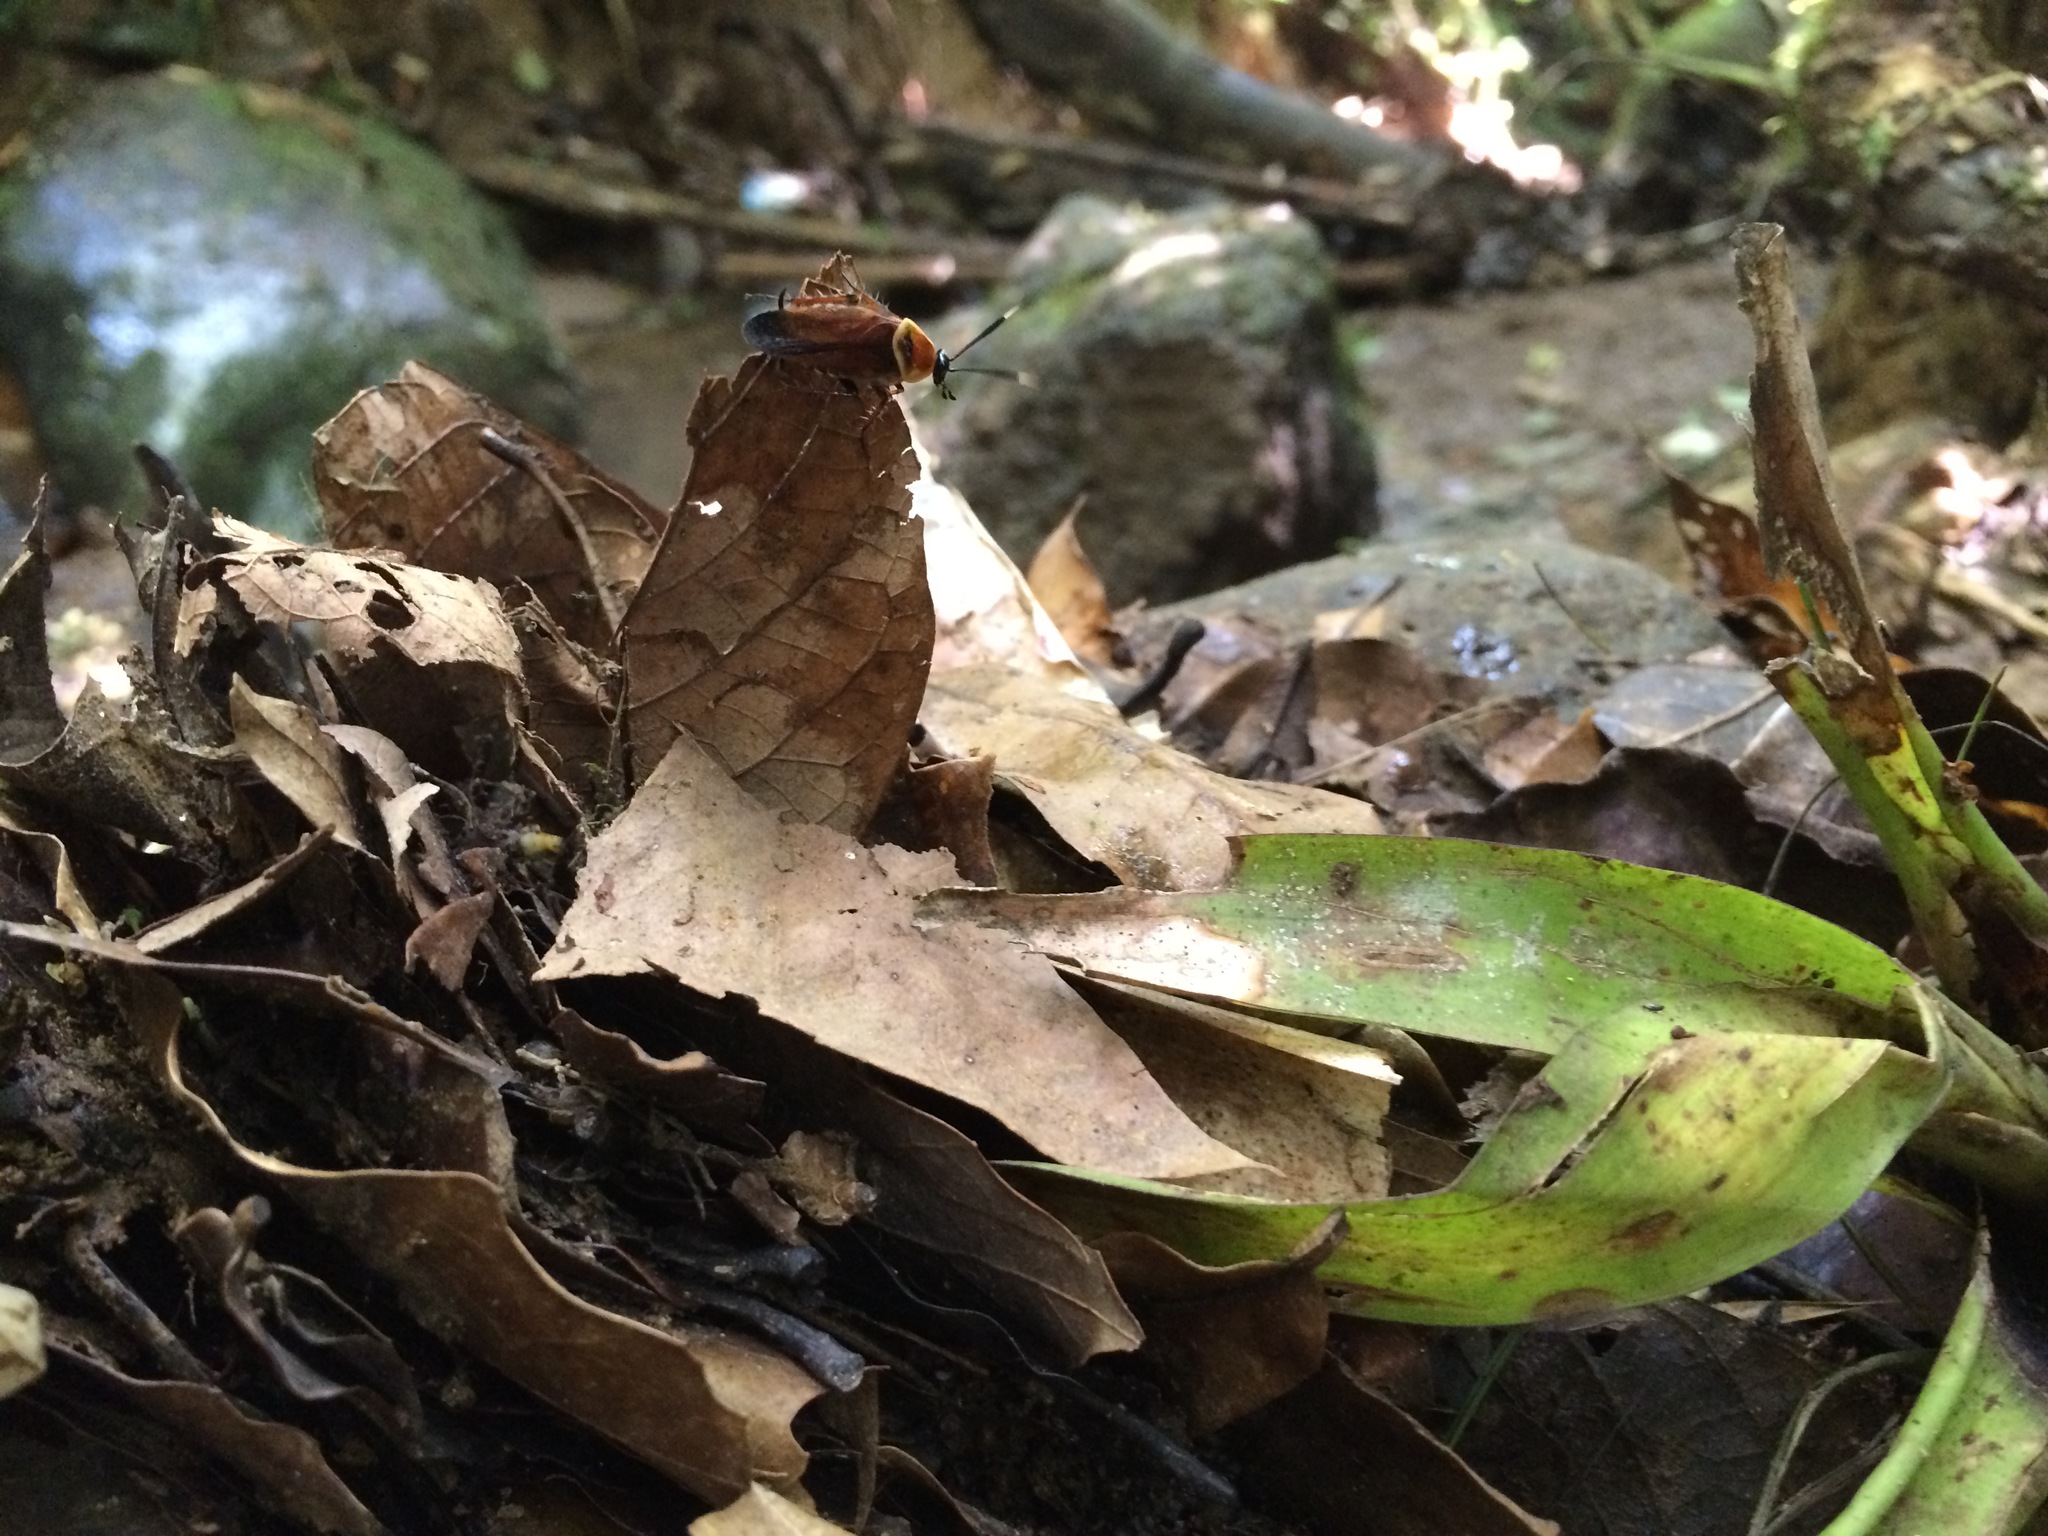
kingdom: Animalia
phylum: Arthropoda
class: Insecta
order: Blattodea
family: Ectobiidae
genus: Pseudomops
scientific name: Pseudomops guerinianus
